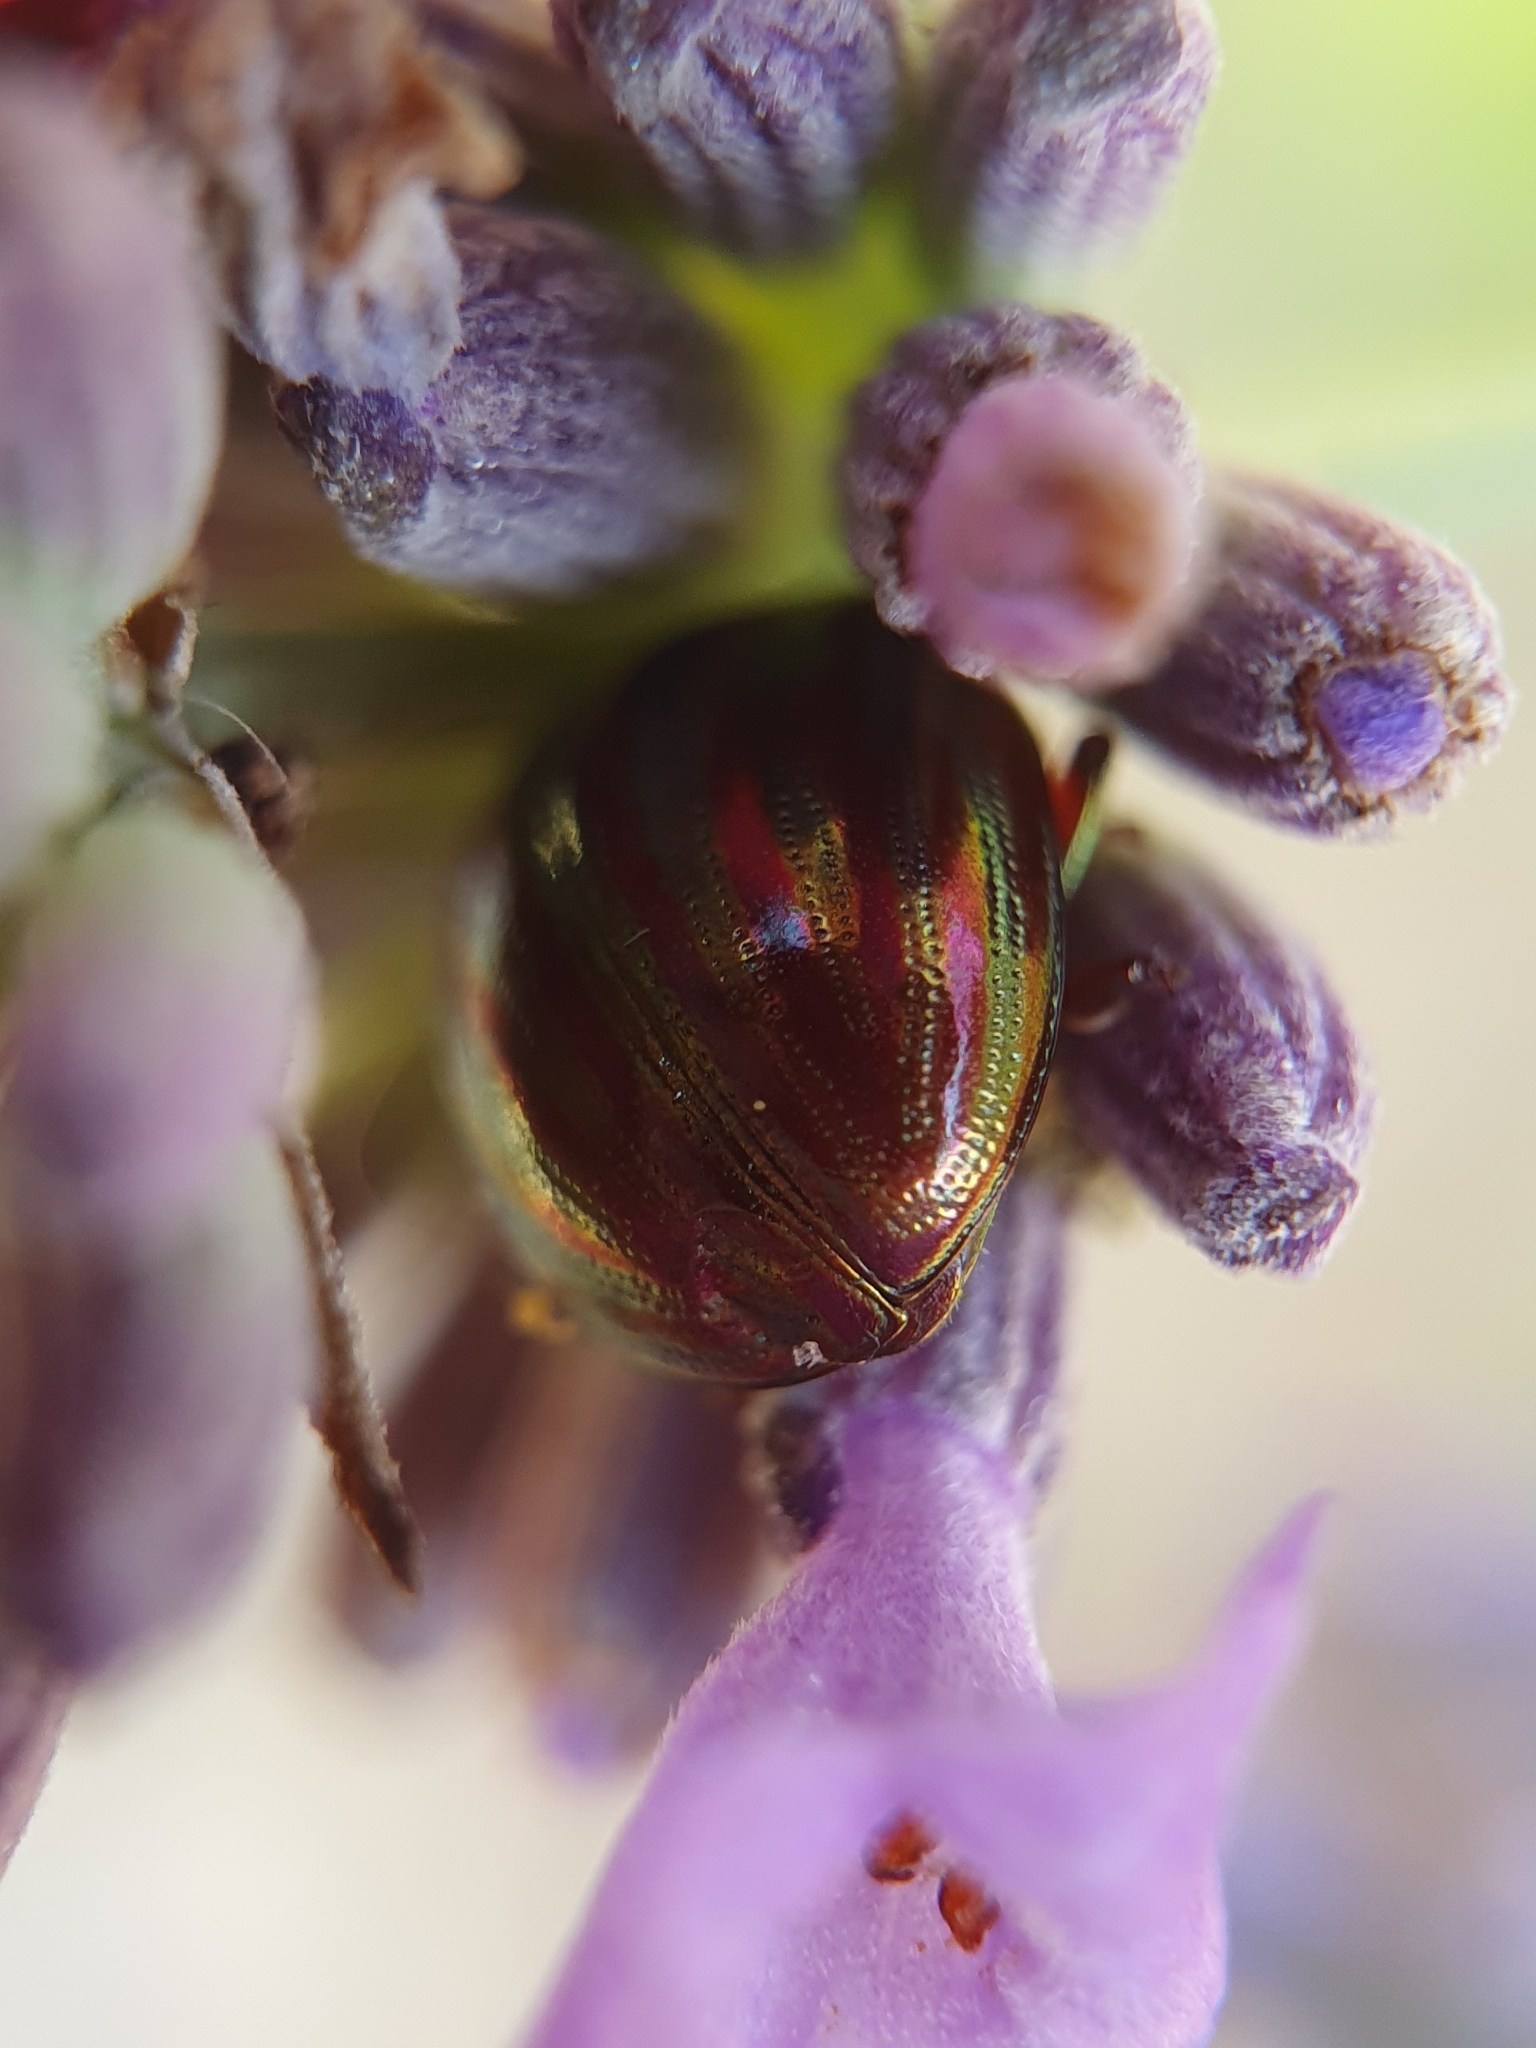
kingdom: Animalia
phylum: Arthropoda
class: Insecta
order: Coleoptera
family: Chrysomelidae
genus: Chrysolina
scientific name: Chrysolina americana
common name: Rosemary beetle
